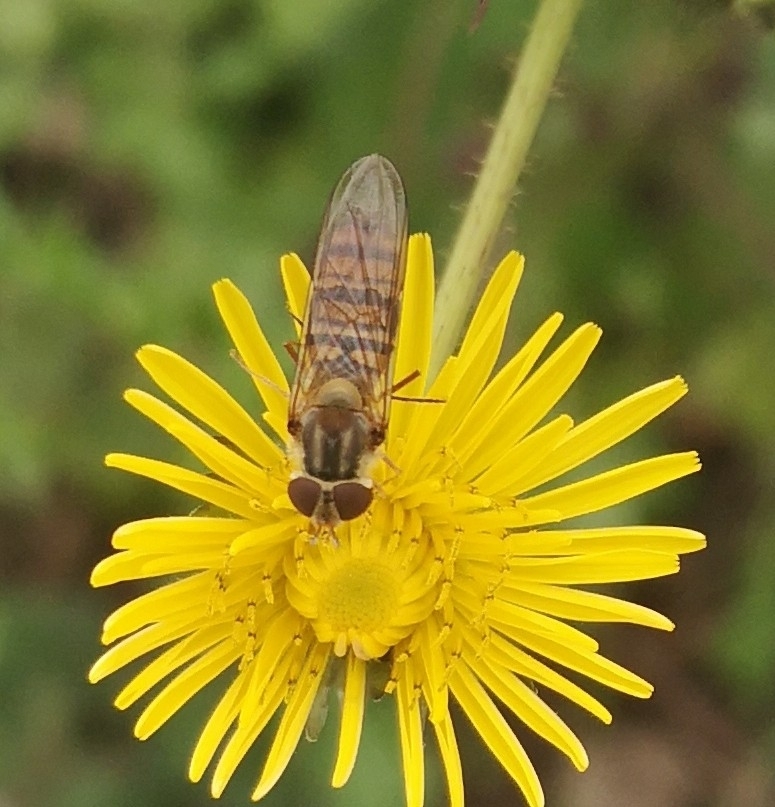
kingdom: Animalia
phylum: Arthropoda
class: Insecta
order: Diptera
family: Syrphidae
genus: Episyrphus
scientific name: Episyrphus balteatus
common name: Marmalade hoverfly
